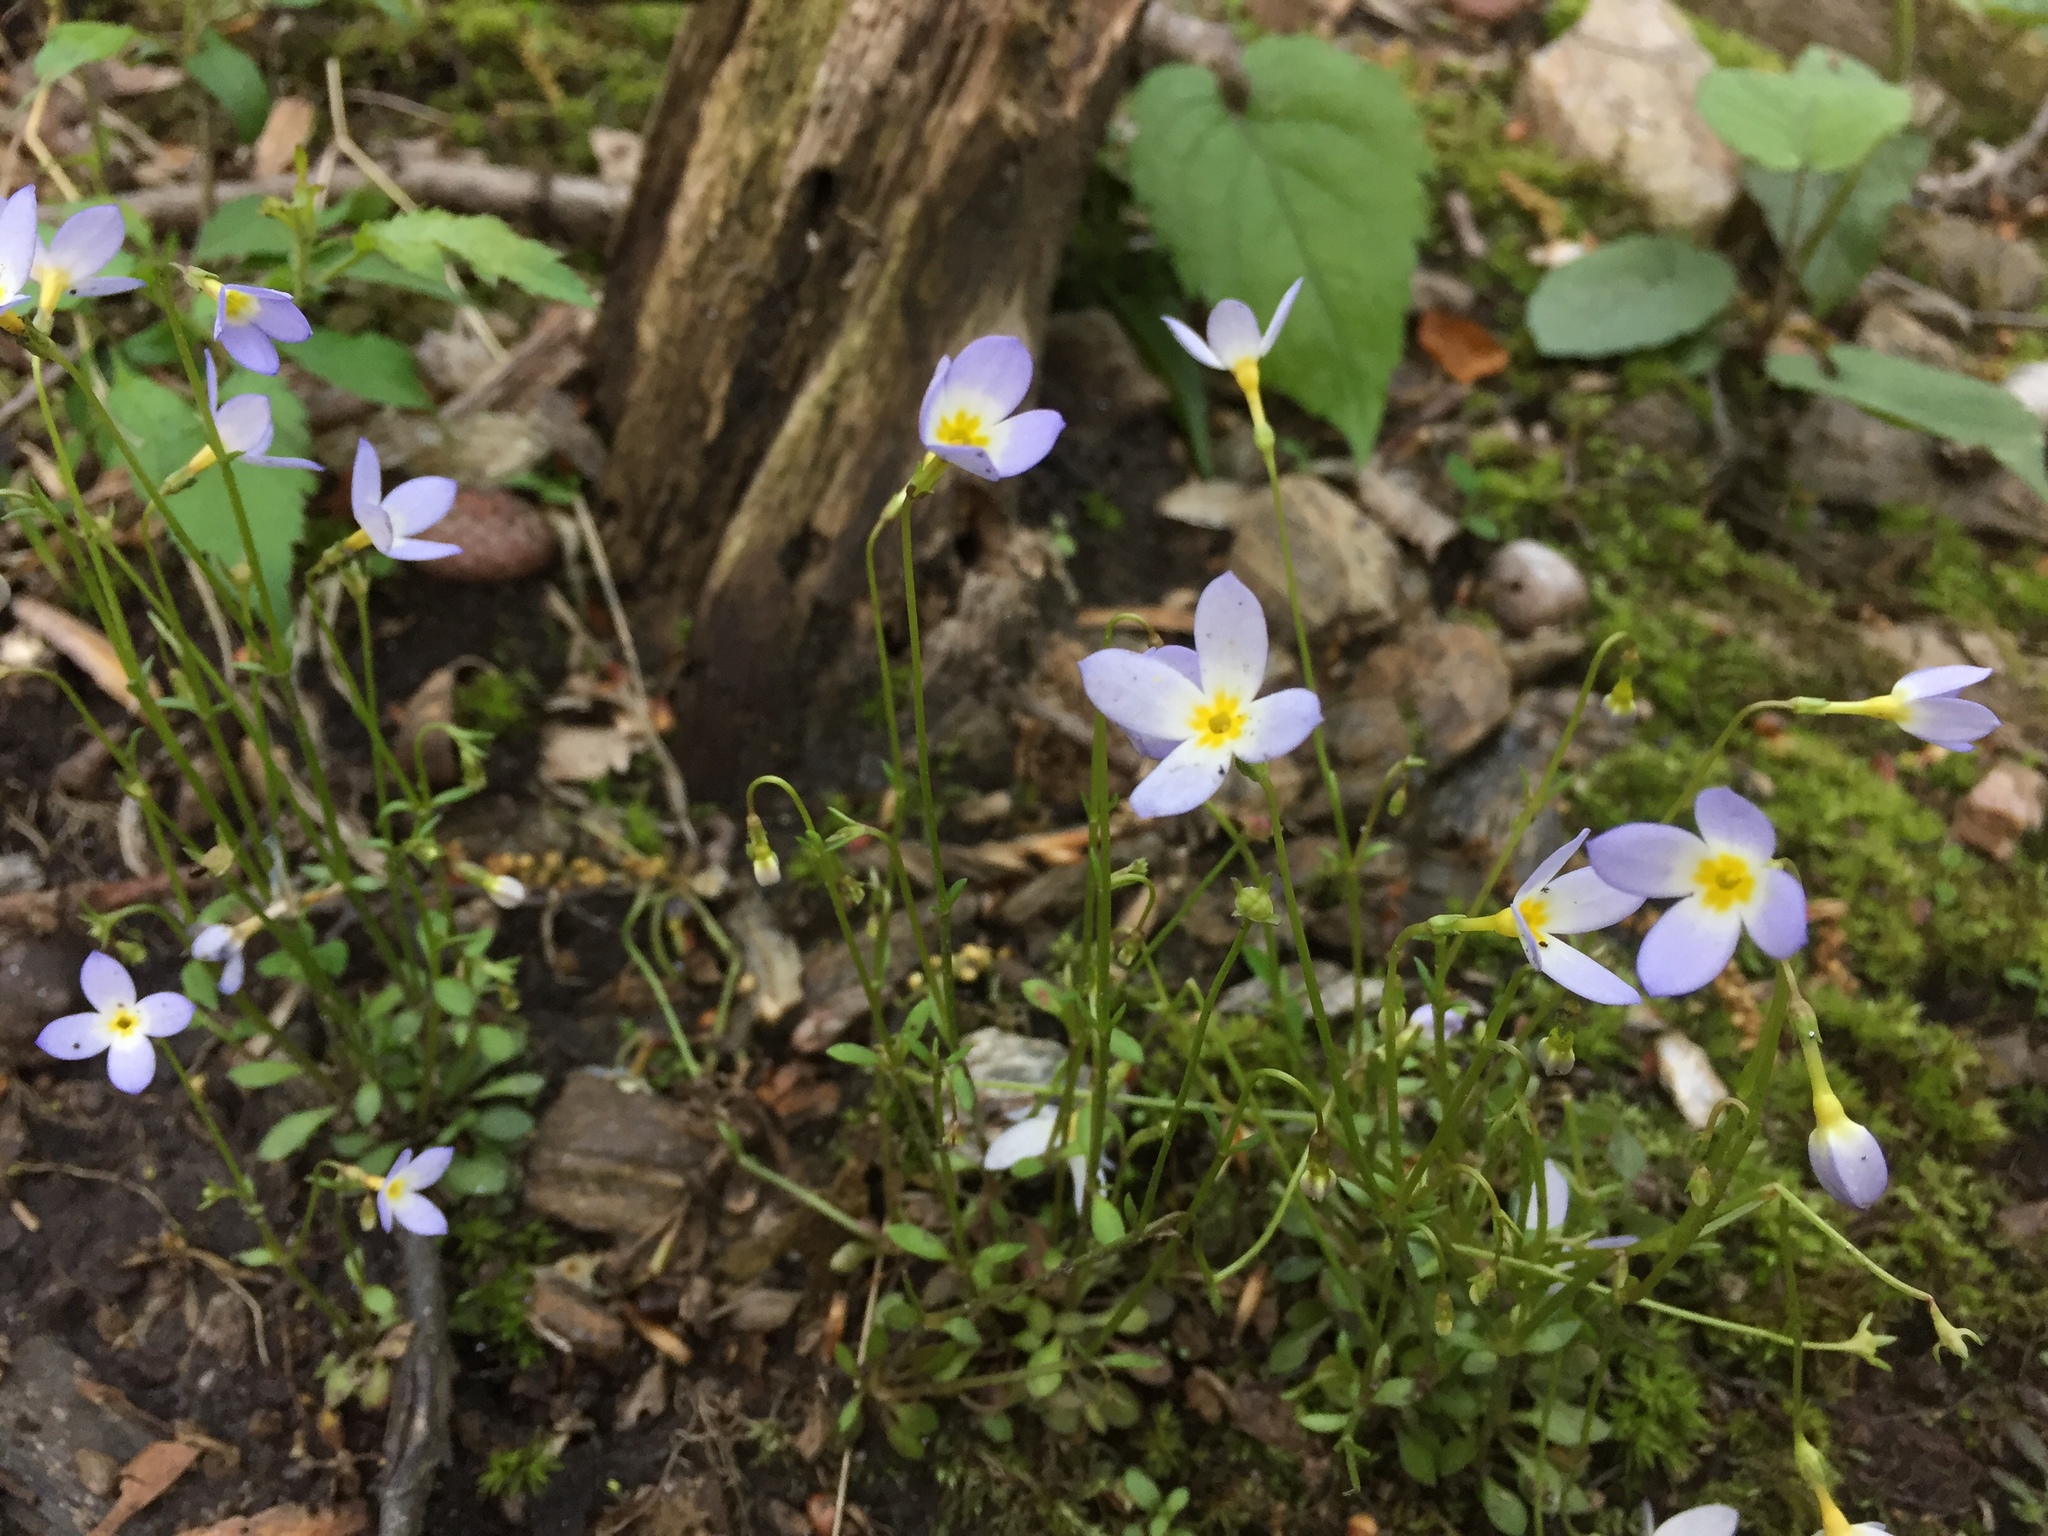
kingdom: Plantae
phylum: Tracheophyta
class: Magnoliopsida
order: Gentianales
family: Rubiaceae
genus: Houstonia
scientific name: Houstonia caerulea
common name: Bluets
